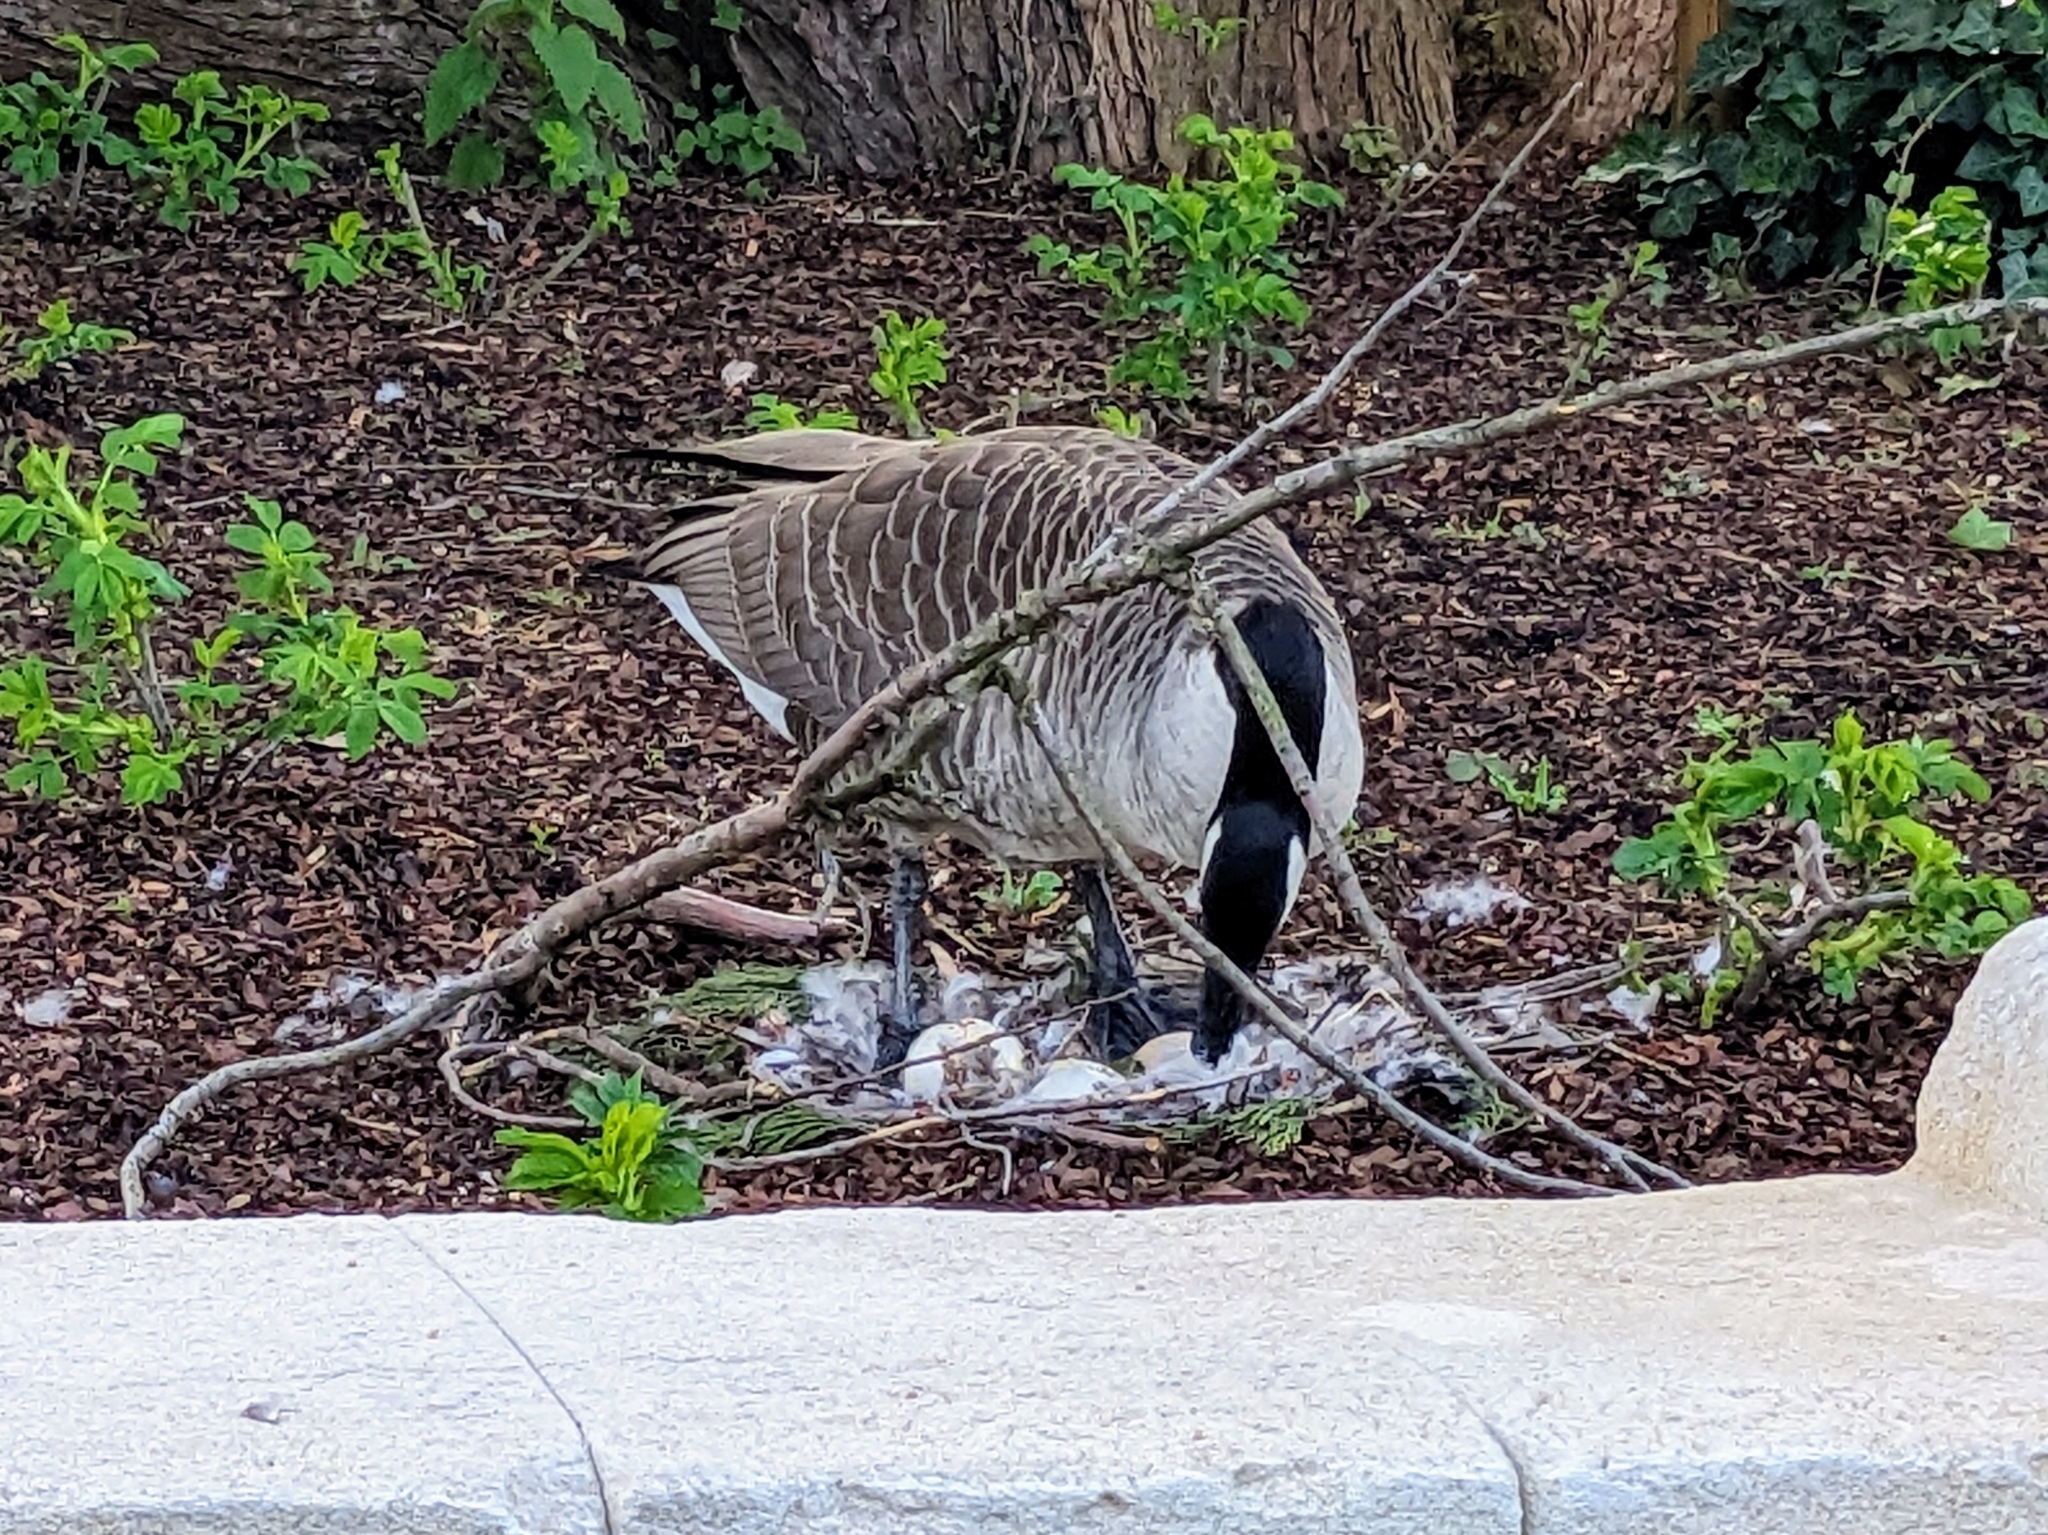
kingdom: Animalia
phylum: Chordata
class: Aves
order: Anseriformes
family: Anatidae
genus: Branta
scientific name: Branta canadensis
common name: Canada goose
